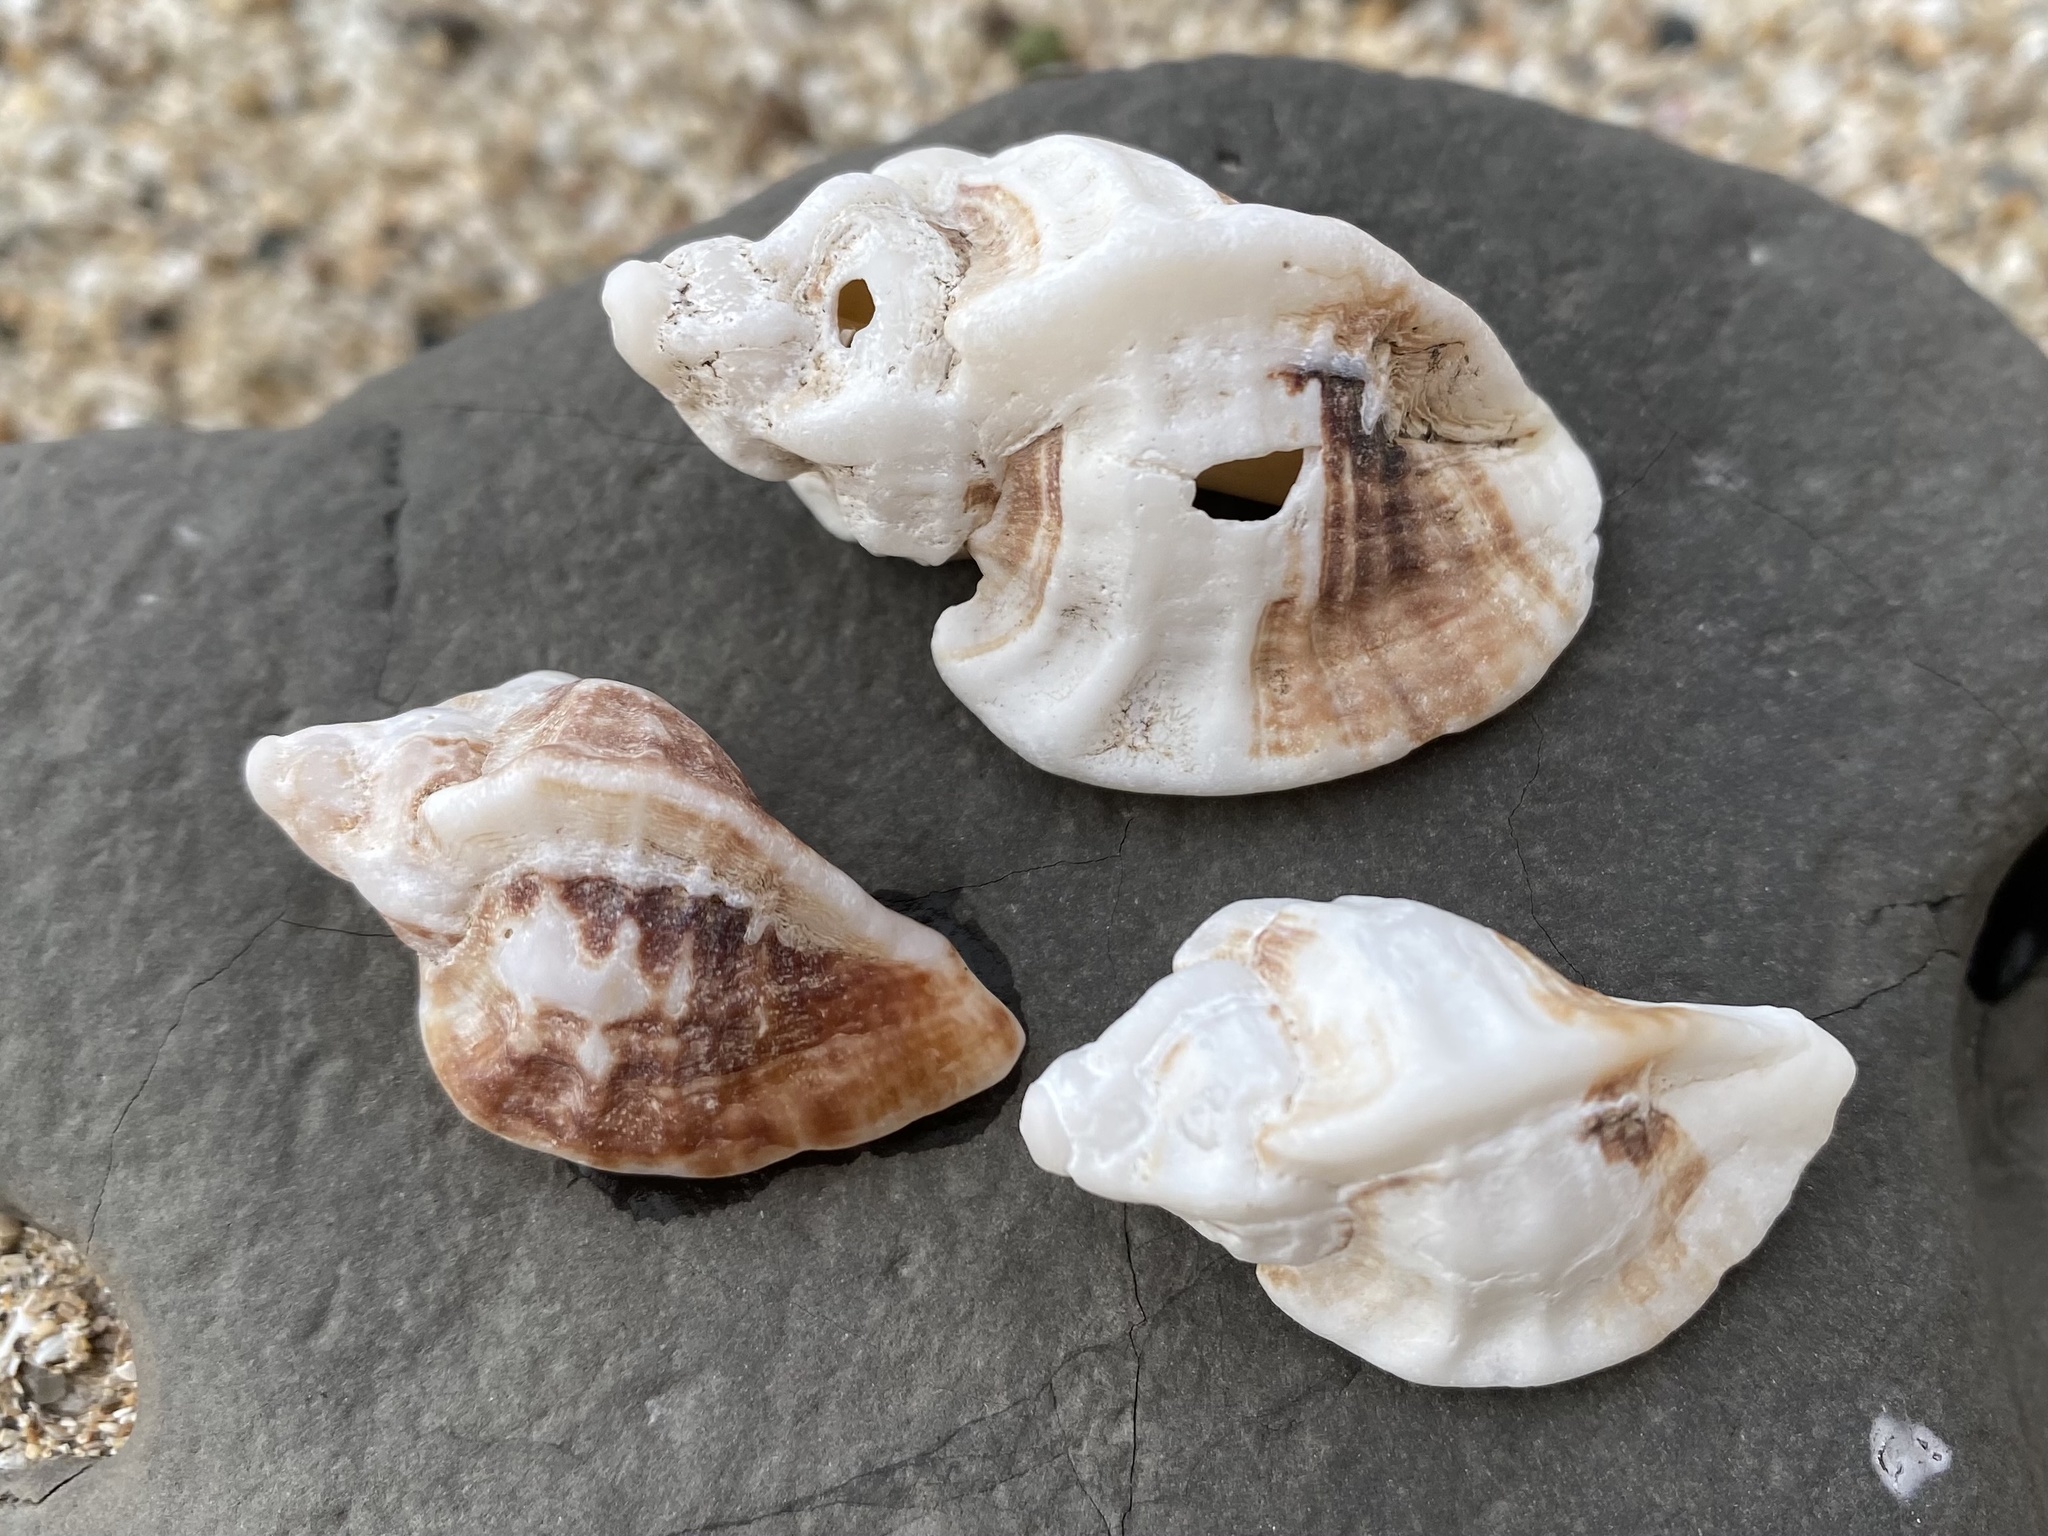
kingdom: Animalia
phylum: Mollusca
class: Gastropoda
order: Neogastropoda
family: Muricidae
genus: Ceratostoma
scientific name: Ceratostoma foliatum
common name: Foliate thorn purpura
